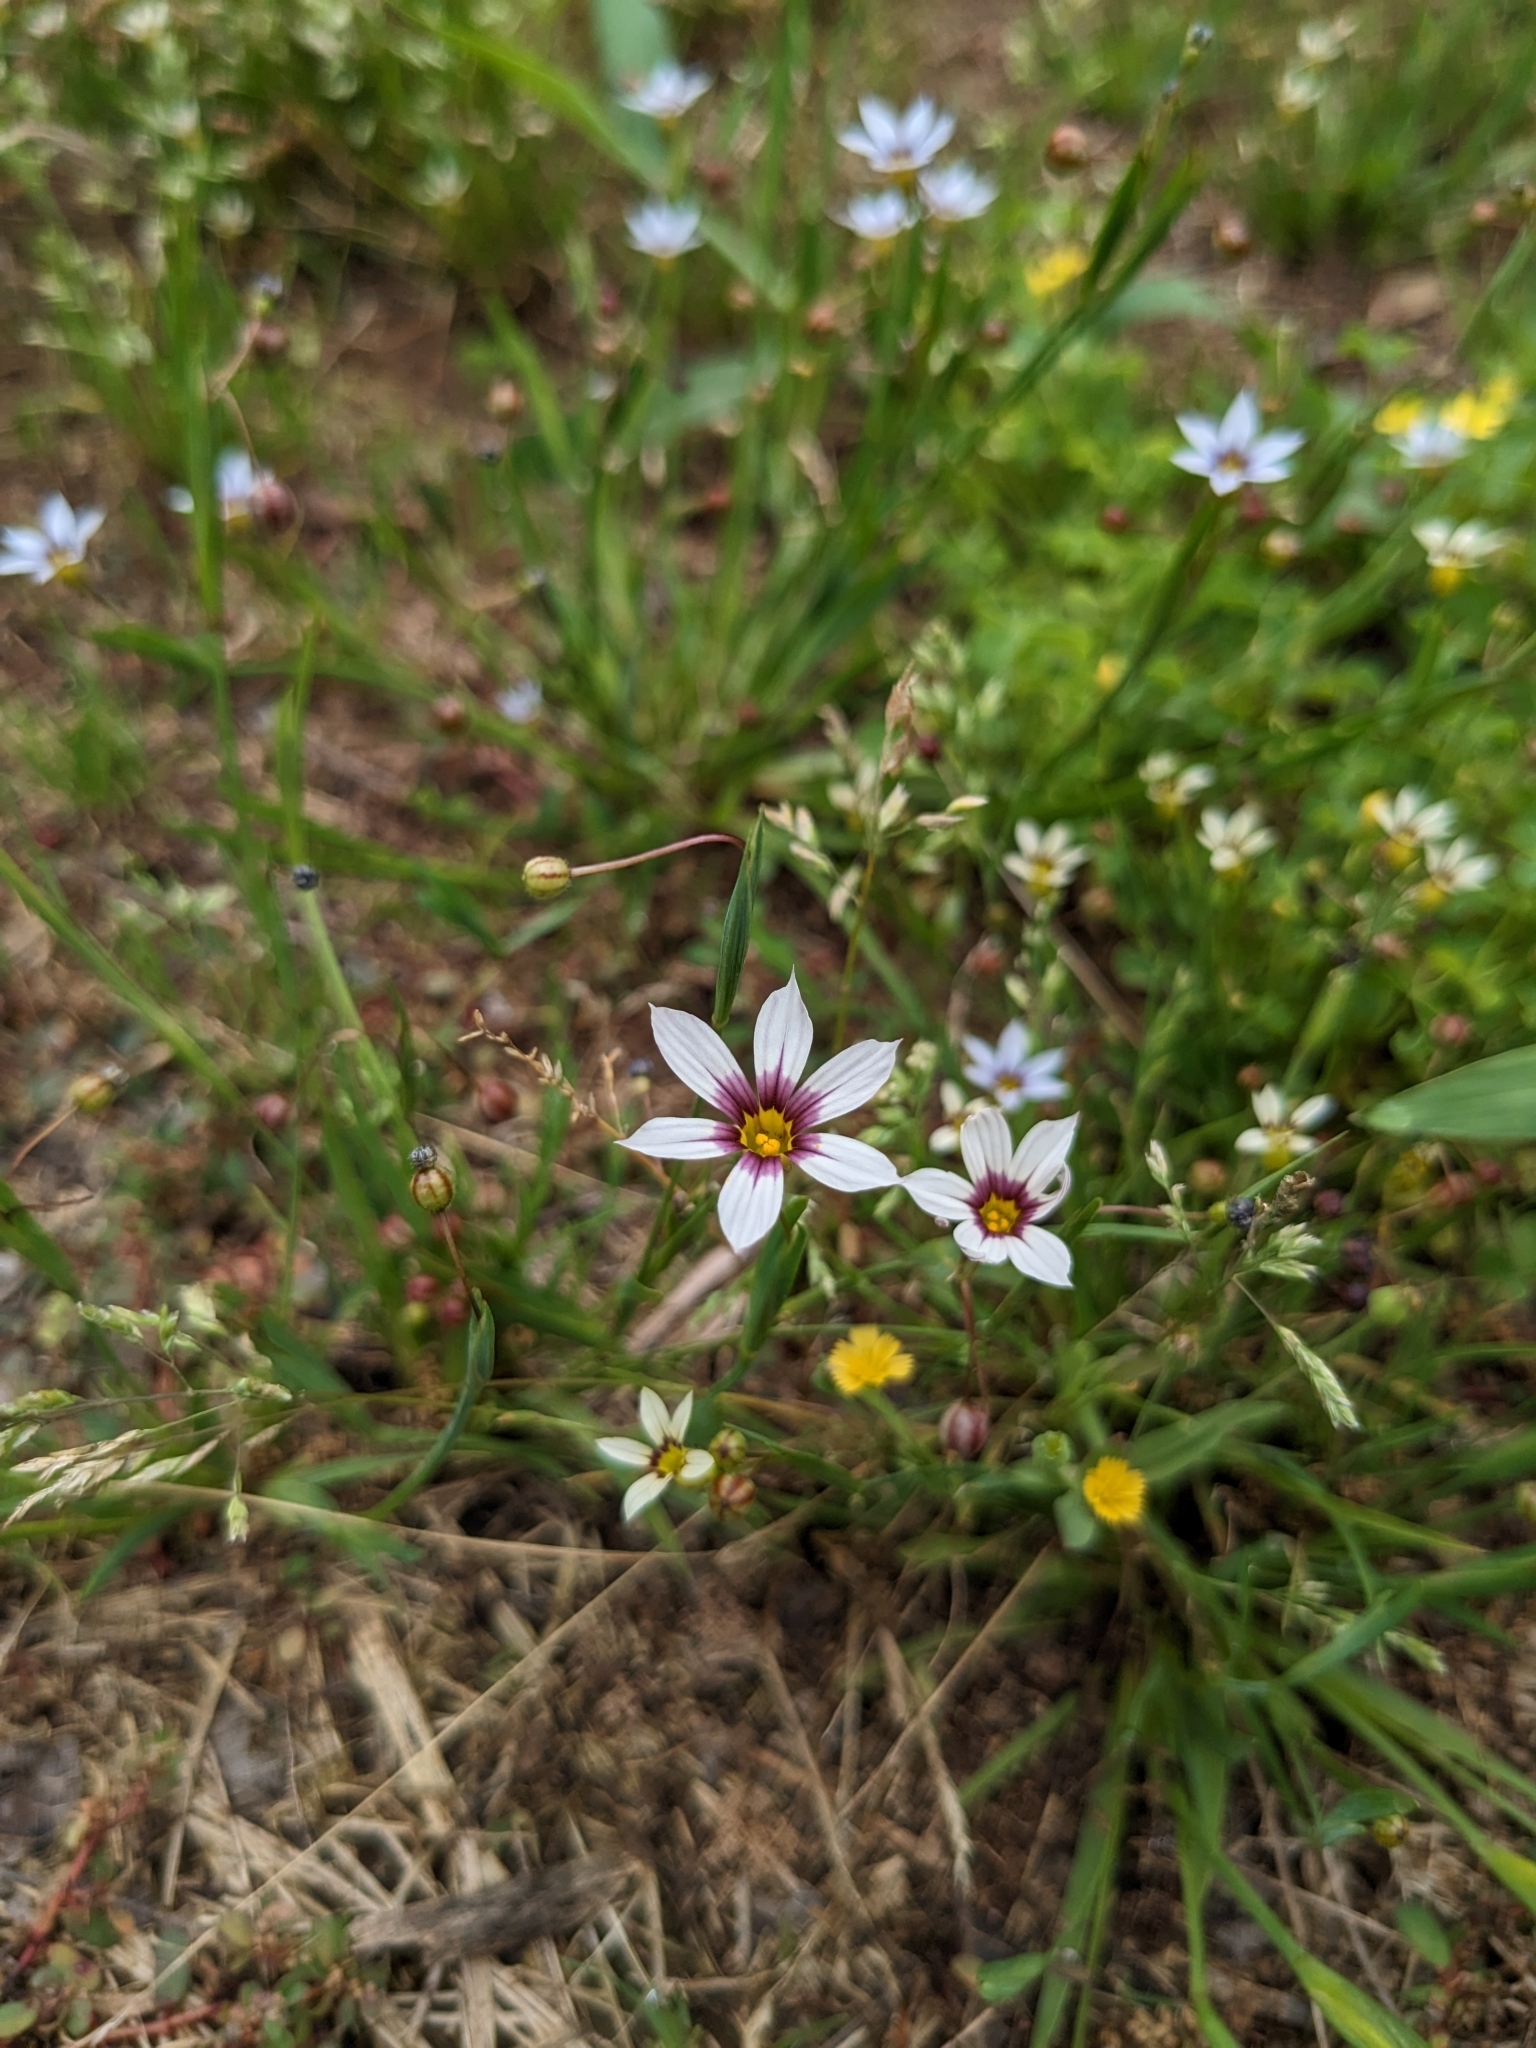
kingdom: Plantae
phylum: Tracheophyta
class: Liliopsida
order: Asparagales
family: Iridaceae
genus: Sisyrinchium
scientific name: Sisyrinchium micranthum
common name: Bermuda pigroot
